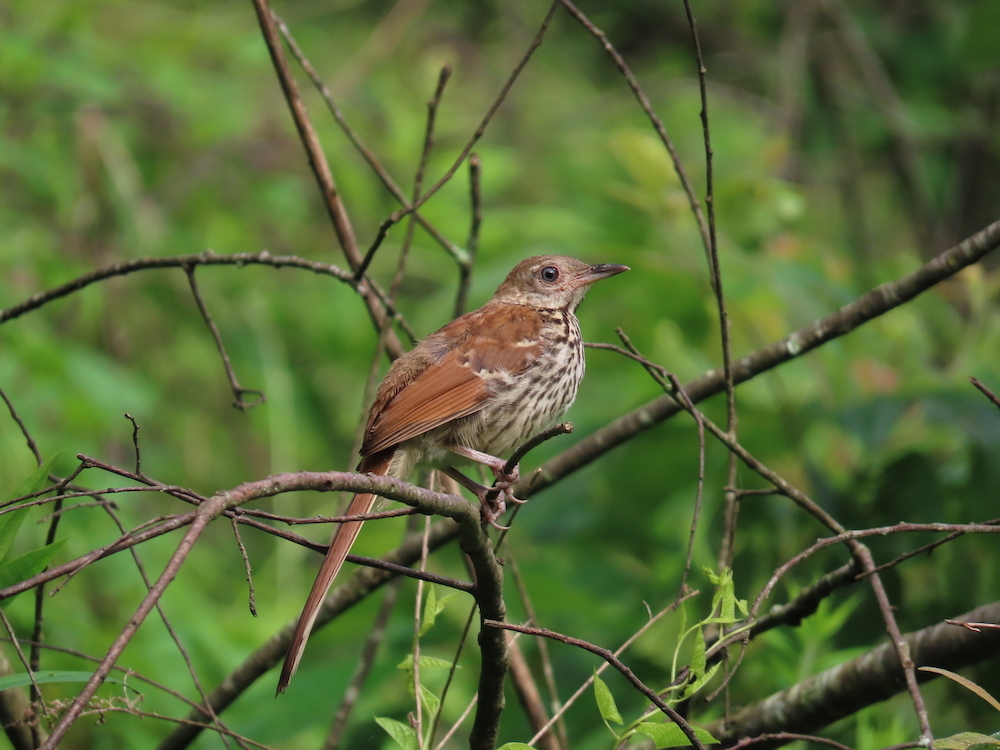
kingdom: Animalia
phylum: Chordata
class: Aves
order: Passeriformes
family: Mimidae
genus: Toxostoma
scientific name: Toxostoma rufum
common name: Brown thrasher
